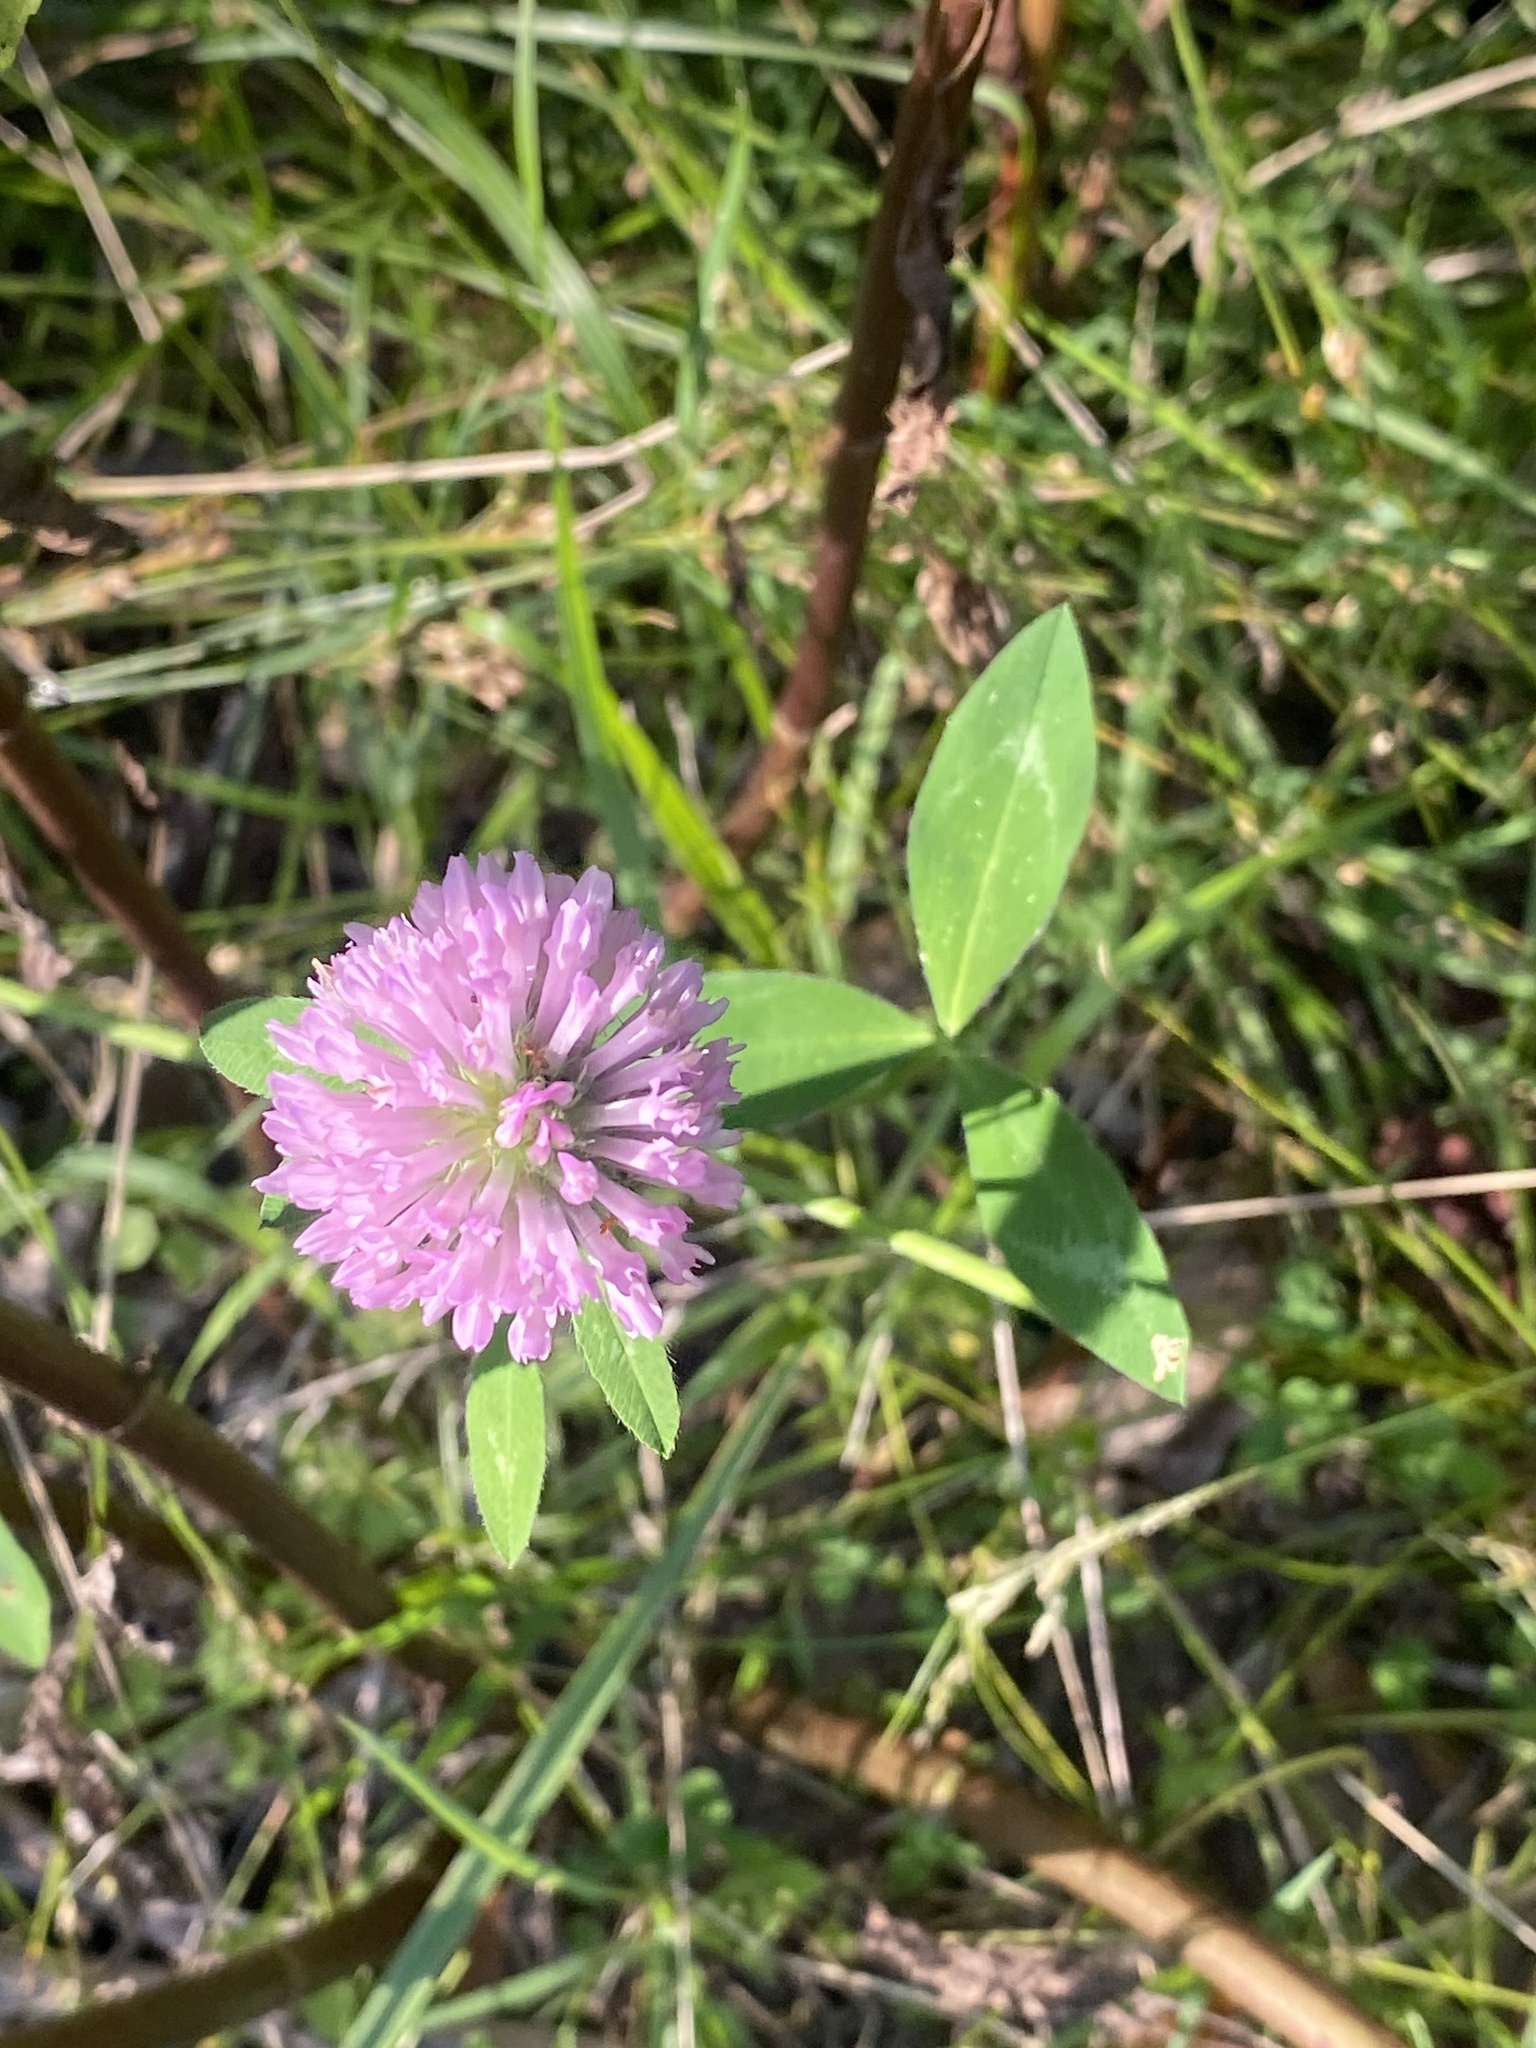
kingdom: Plantae
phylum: Tracheophyta
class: Magnoliopsida
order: Fabales
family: Fabaceae
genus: Trifolium
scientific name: Trifolium pratense
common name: Red clover
